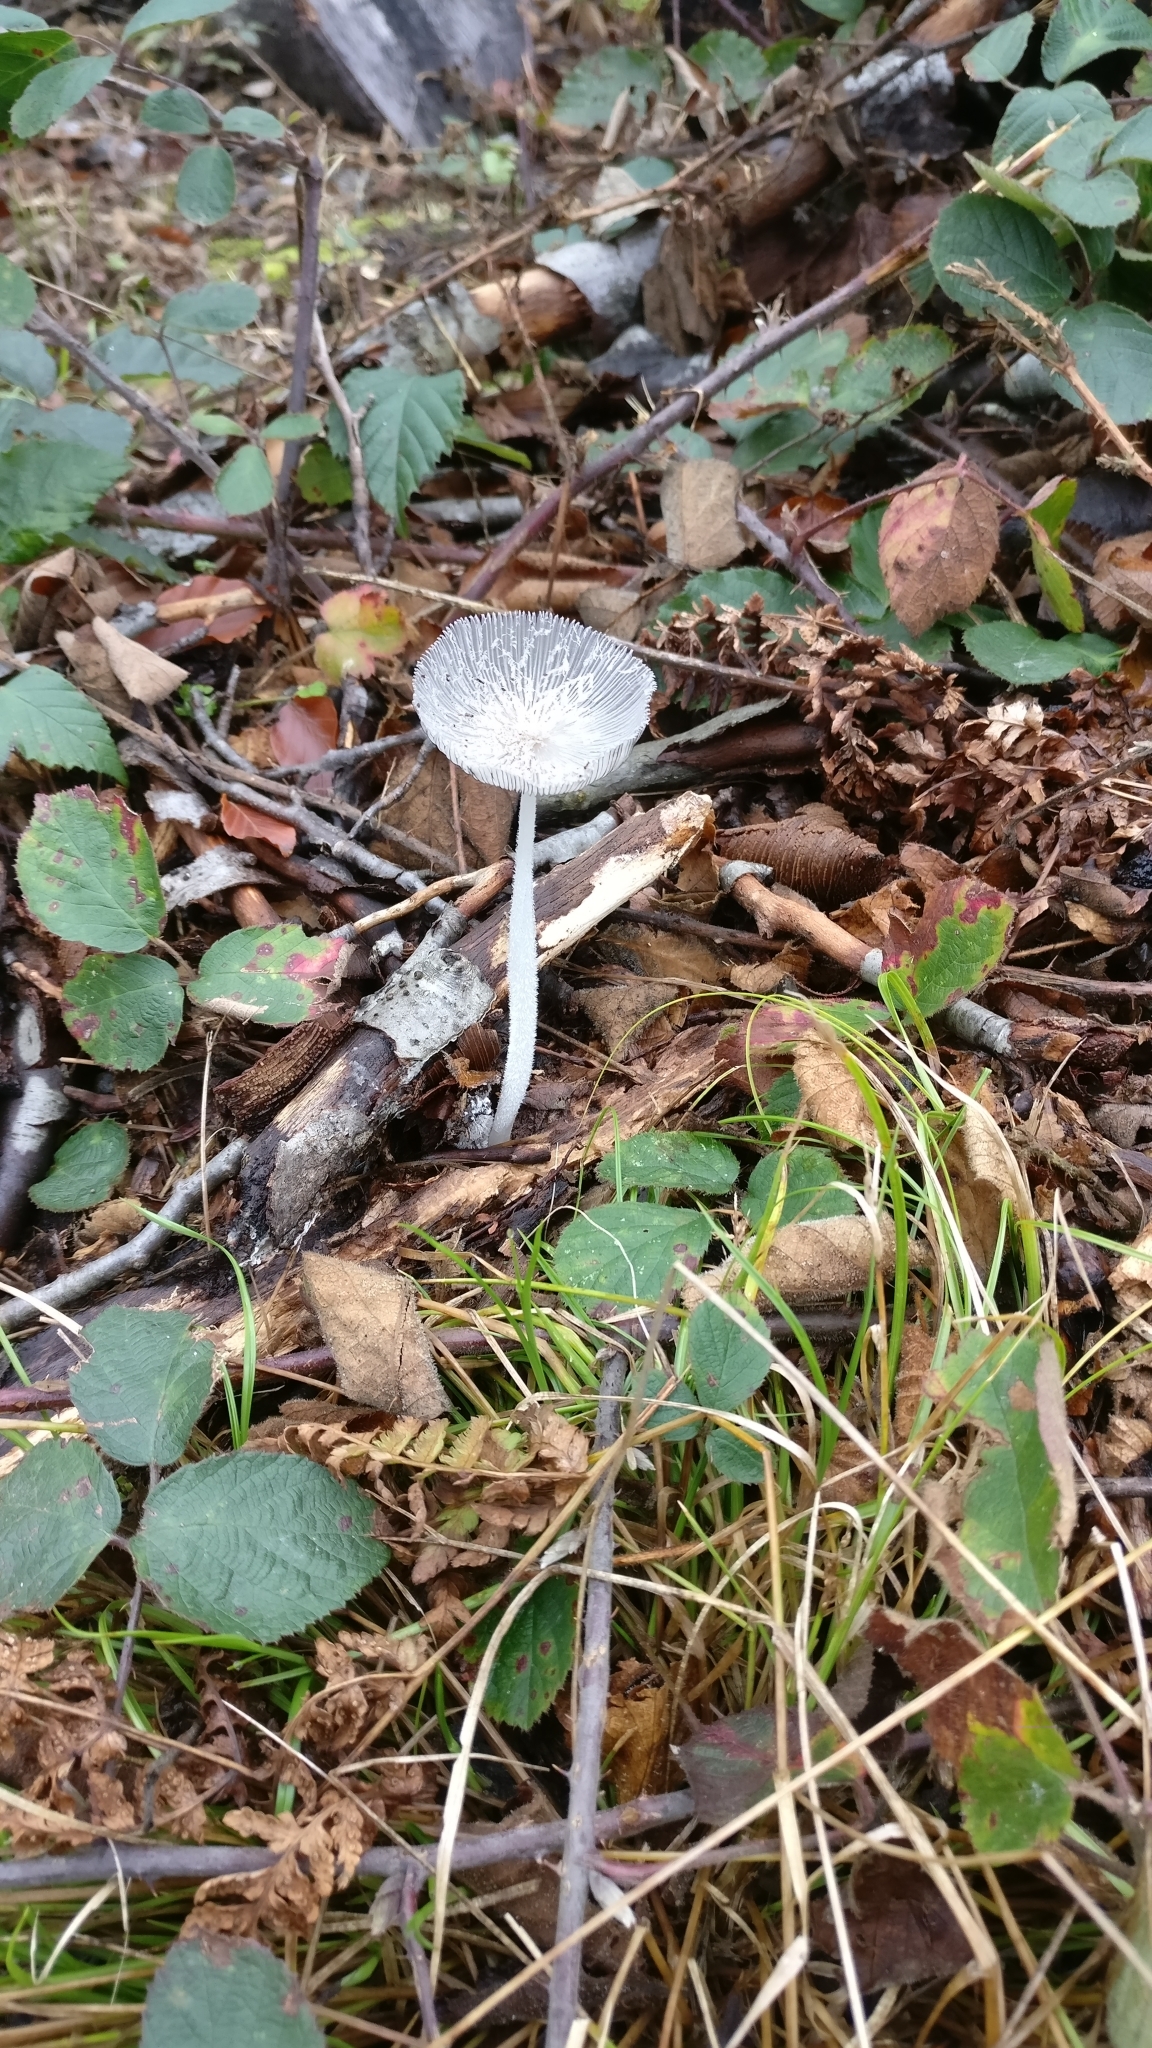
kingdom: Fungi
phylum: Basidiomycota
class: Agaricomycetes
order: Agaricales
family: Psathyrellaceae
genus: Coprinopsis
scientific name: Coprinopsis lagopus
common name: Hare'sfoot inkcap
